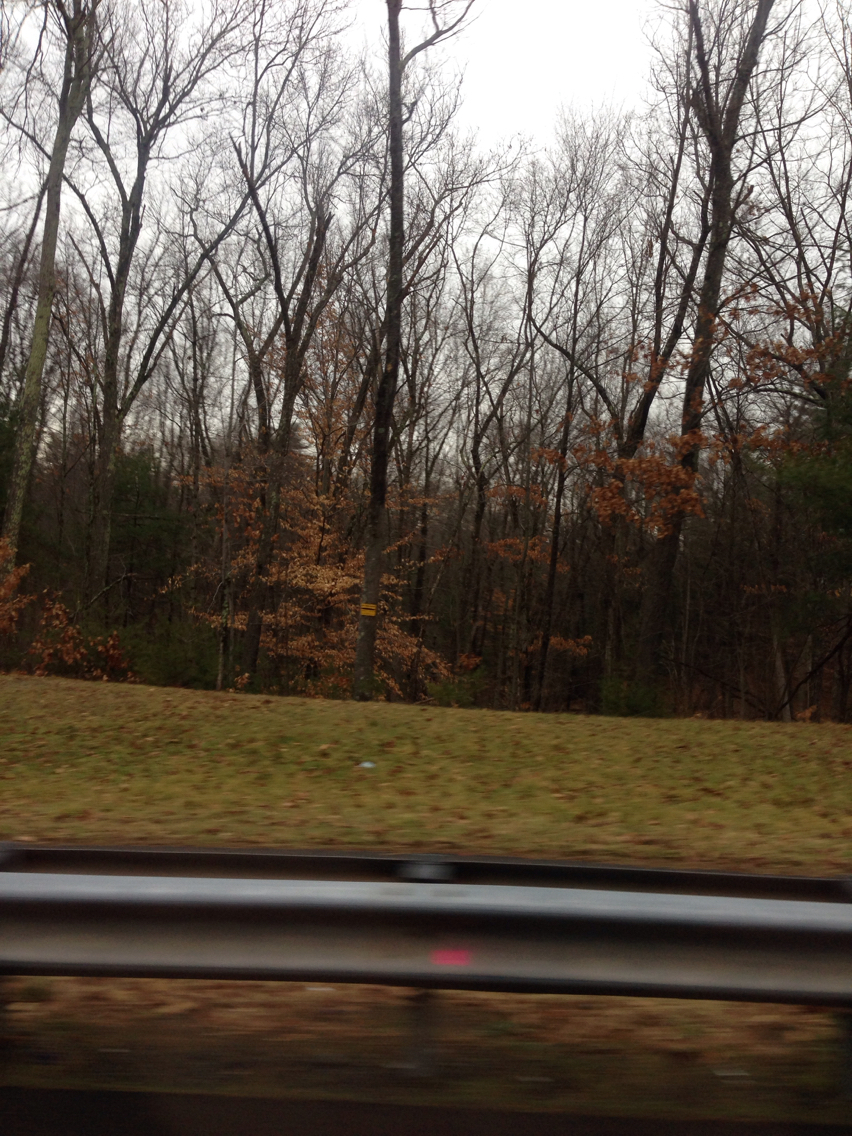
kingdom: Plantae
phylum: Tracheophyta
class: Magnoliopsida
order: Fagales
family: Fagaceae
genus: Fagus
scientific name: Fagus grandifolia
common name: American beech
